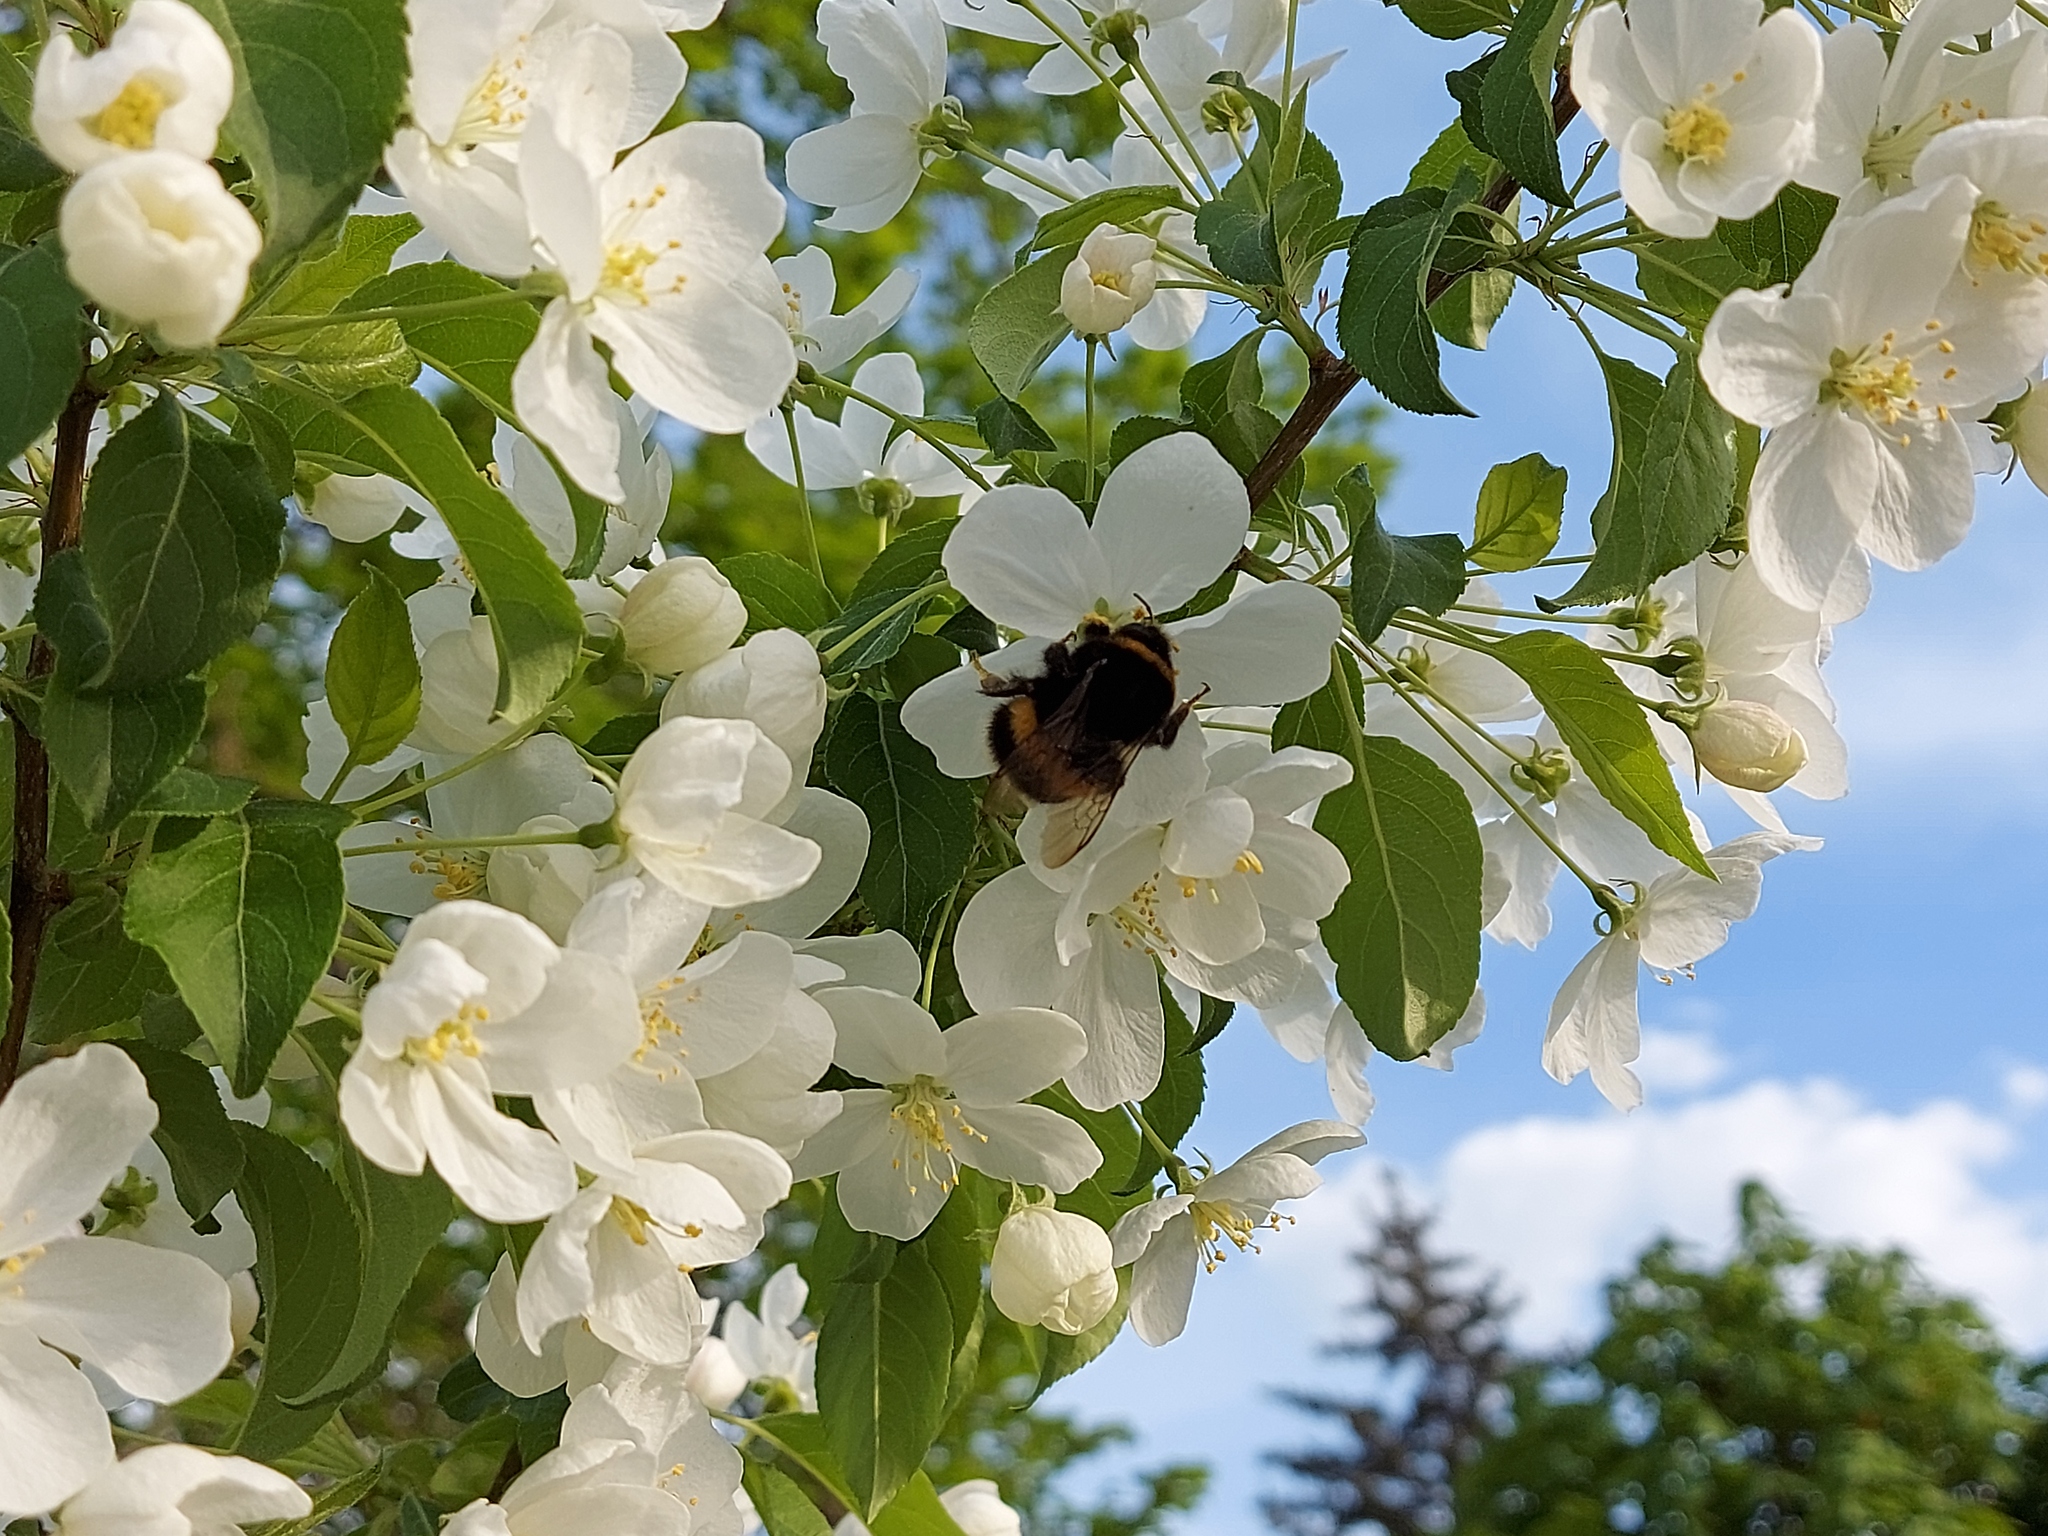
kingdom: Animalia
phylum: Arthropoda
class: Insecta
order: Hymenoptera
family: Apidae
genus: Bombus
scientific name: Bombus
